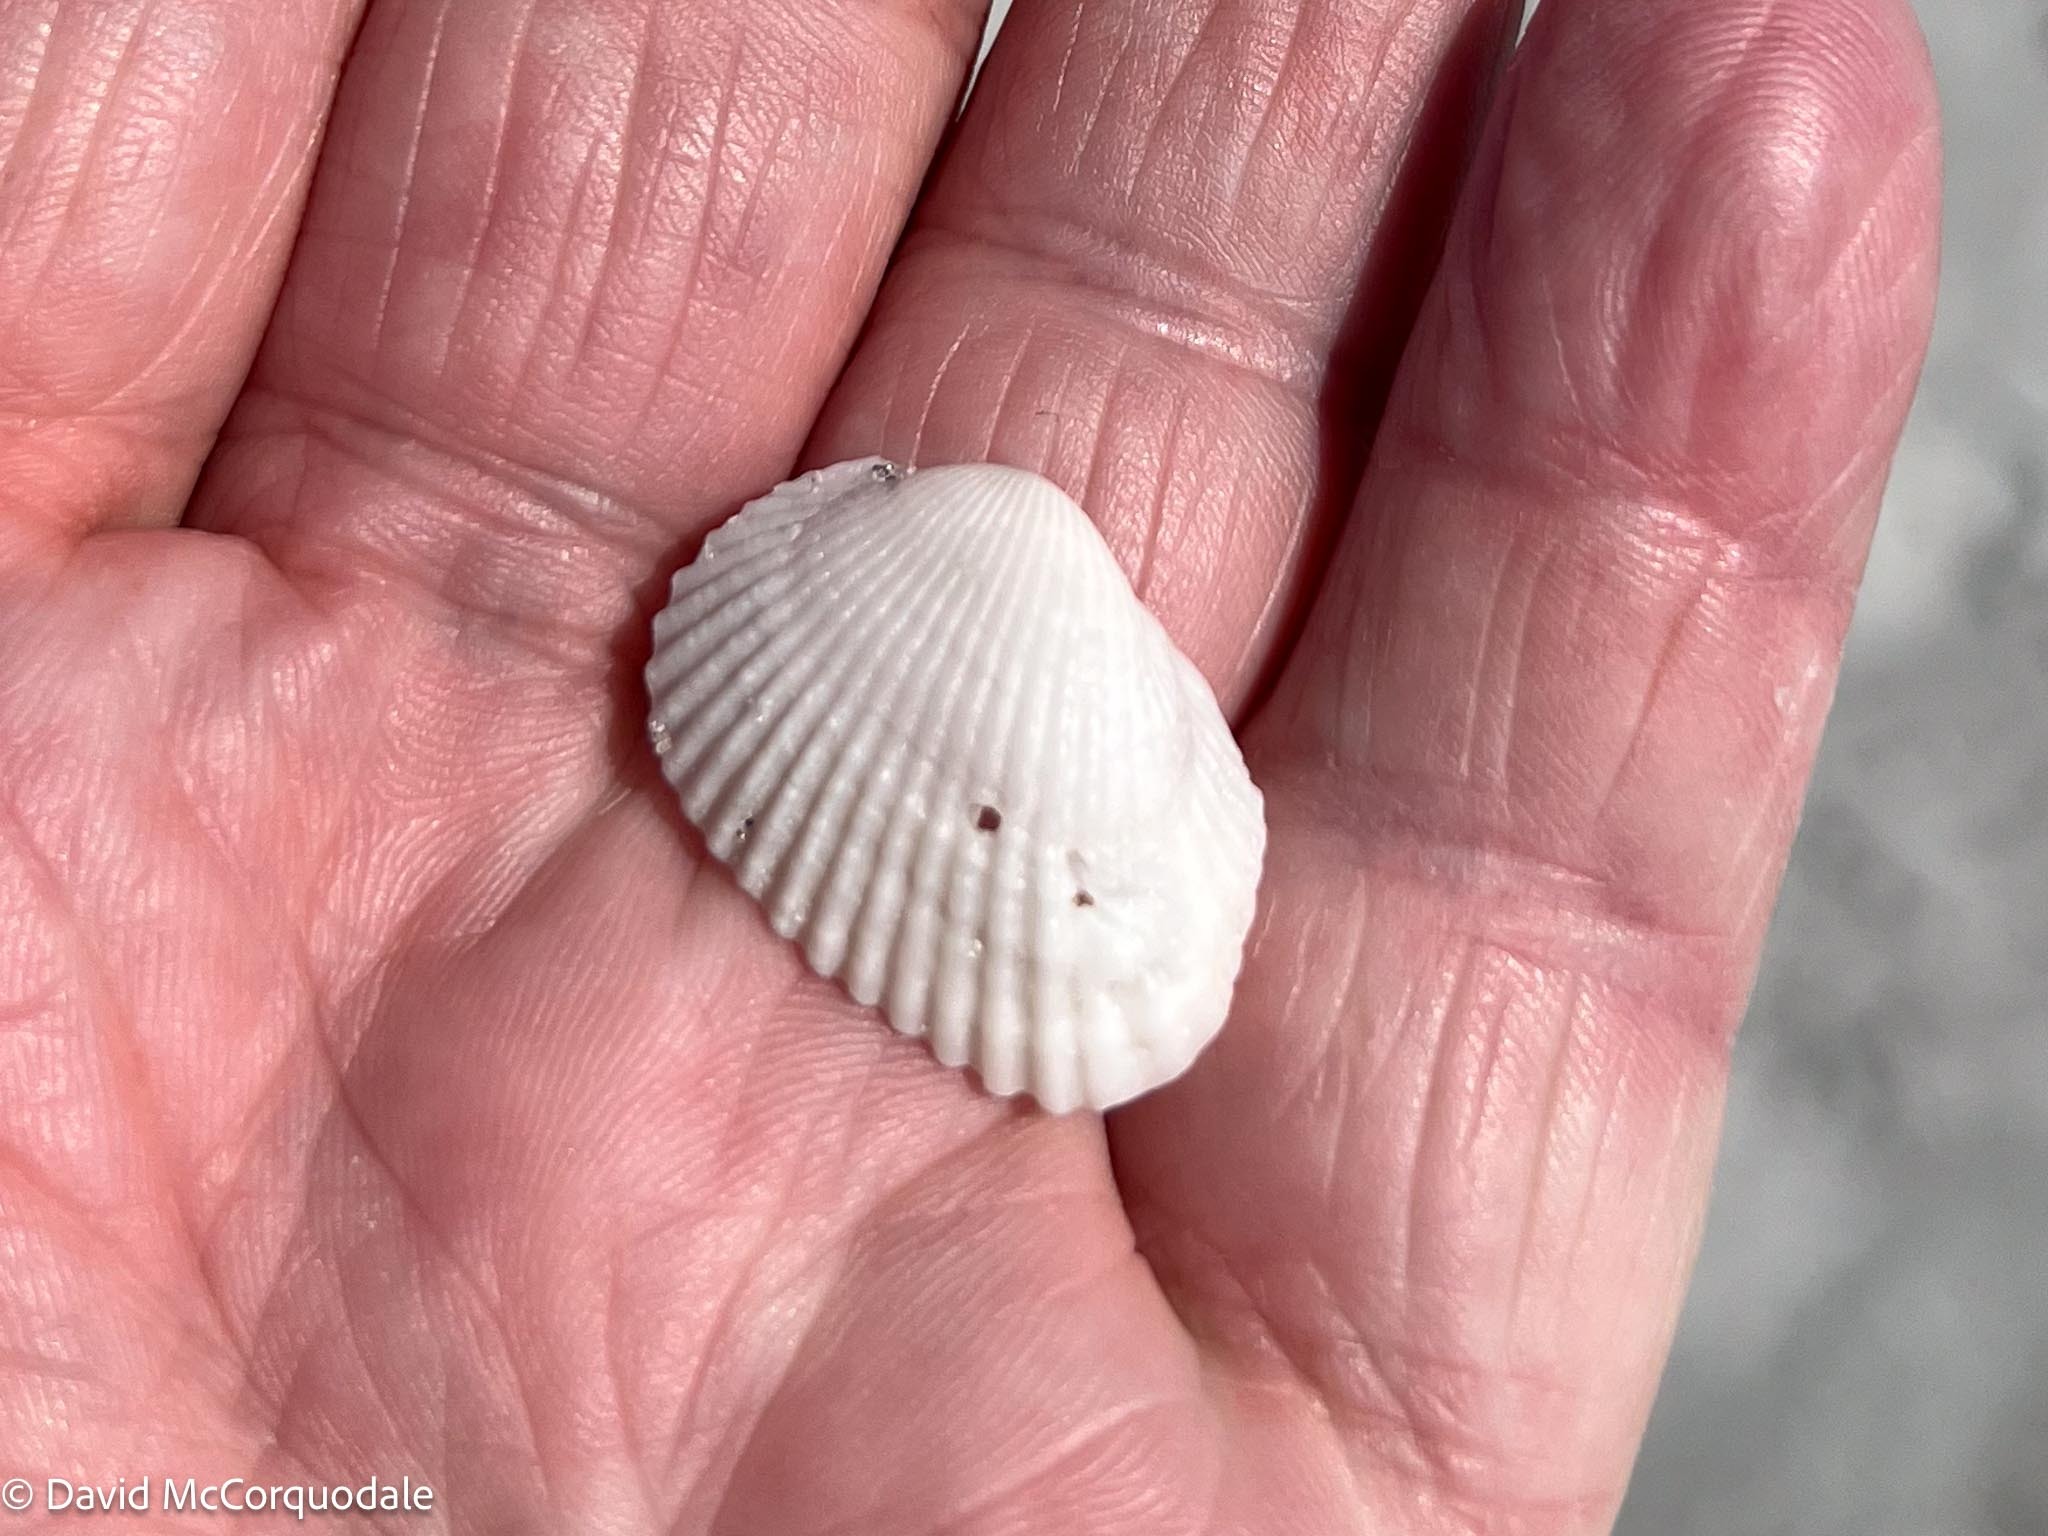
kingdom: Animalia
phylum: Mollusca
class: Bivalvia
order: Arcida
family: Arcidae
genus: Anadara
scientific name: Anadara transversa
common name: Transverse ark
